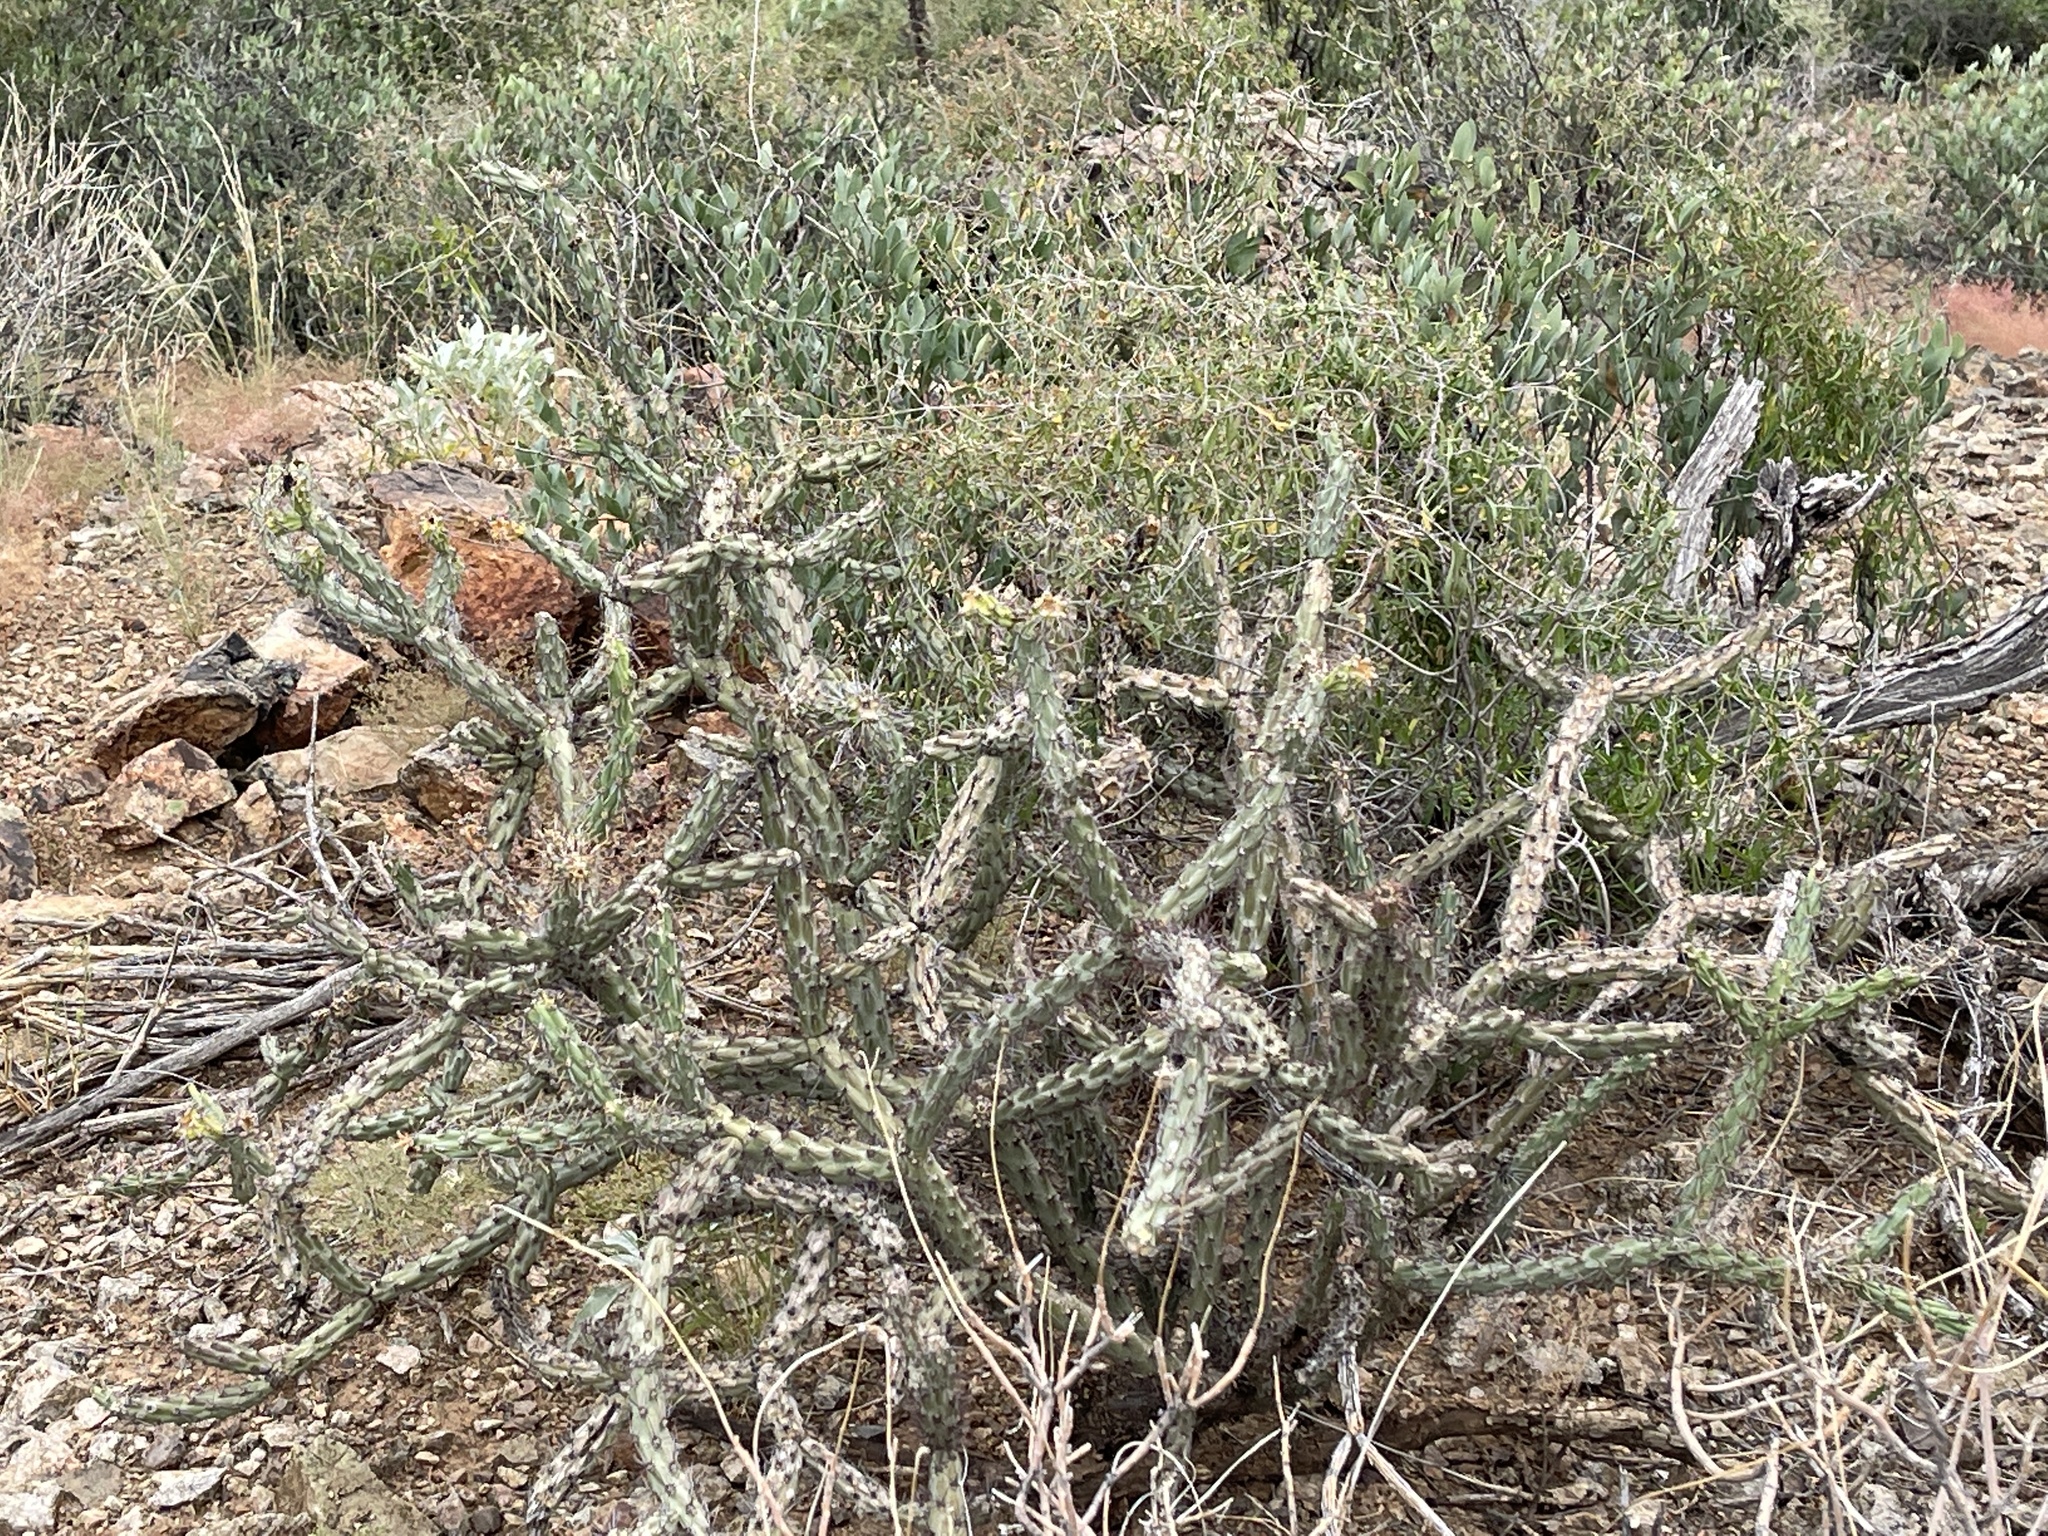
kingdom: Plantae
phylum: Tracheophyta
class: Magnoliopsida
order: Caryophyllales
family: Cactaceae
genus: Cylindropuntia
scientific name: Cylindropuntia acanthocarpa
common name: Buckhorn cholla
